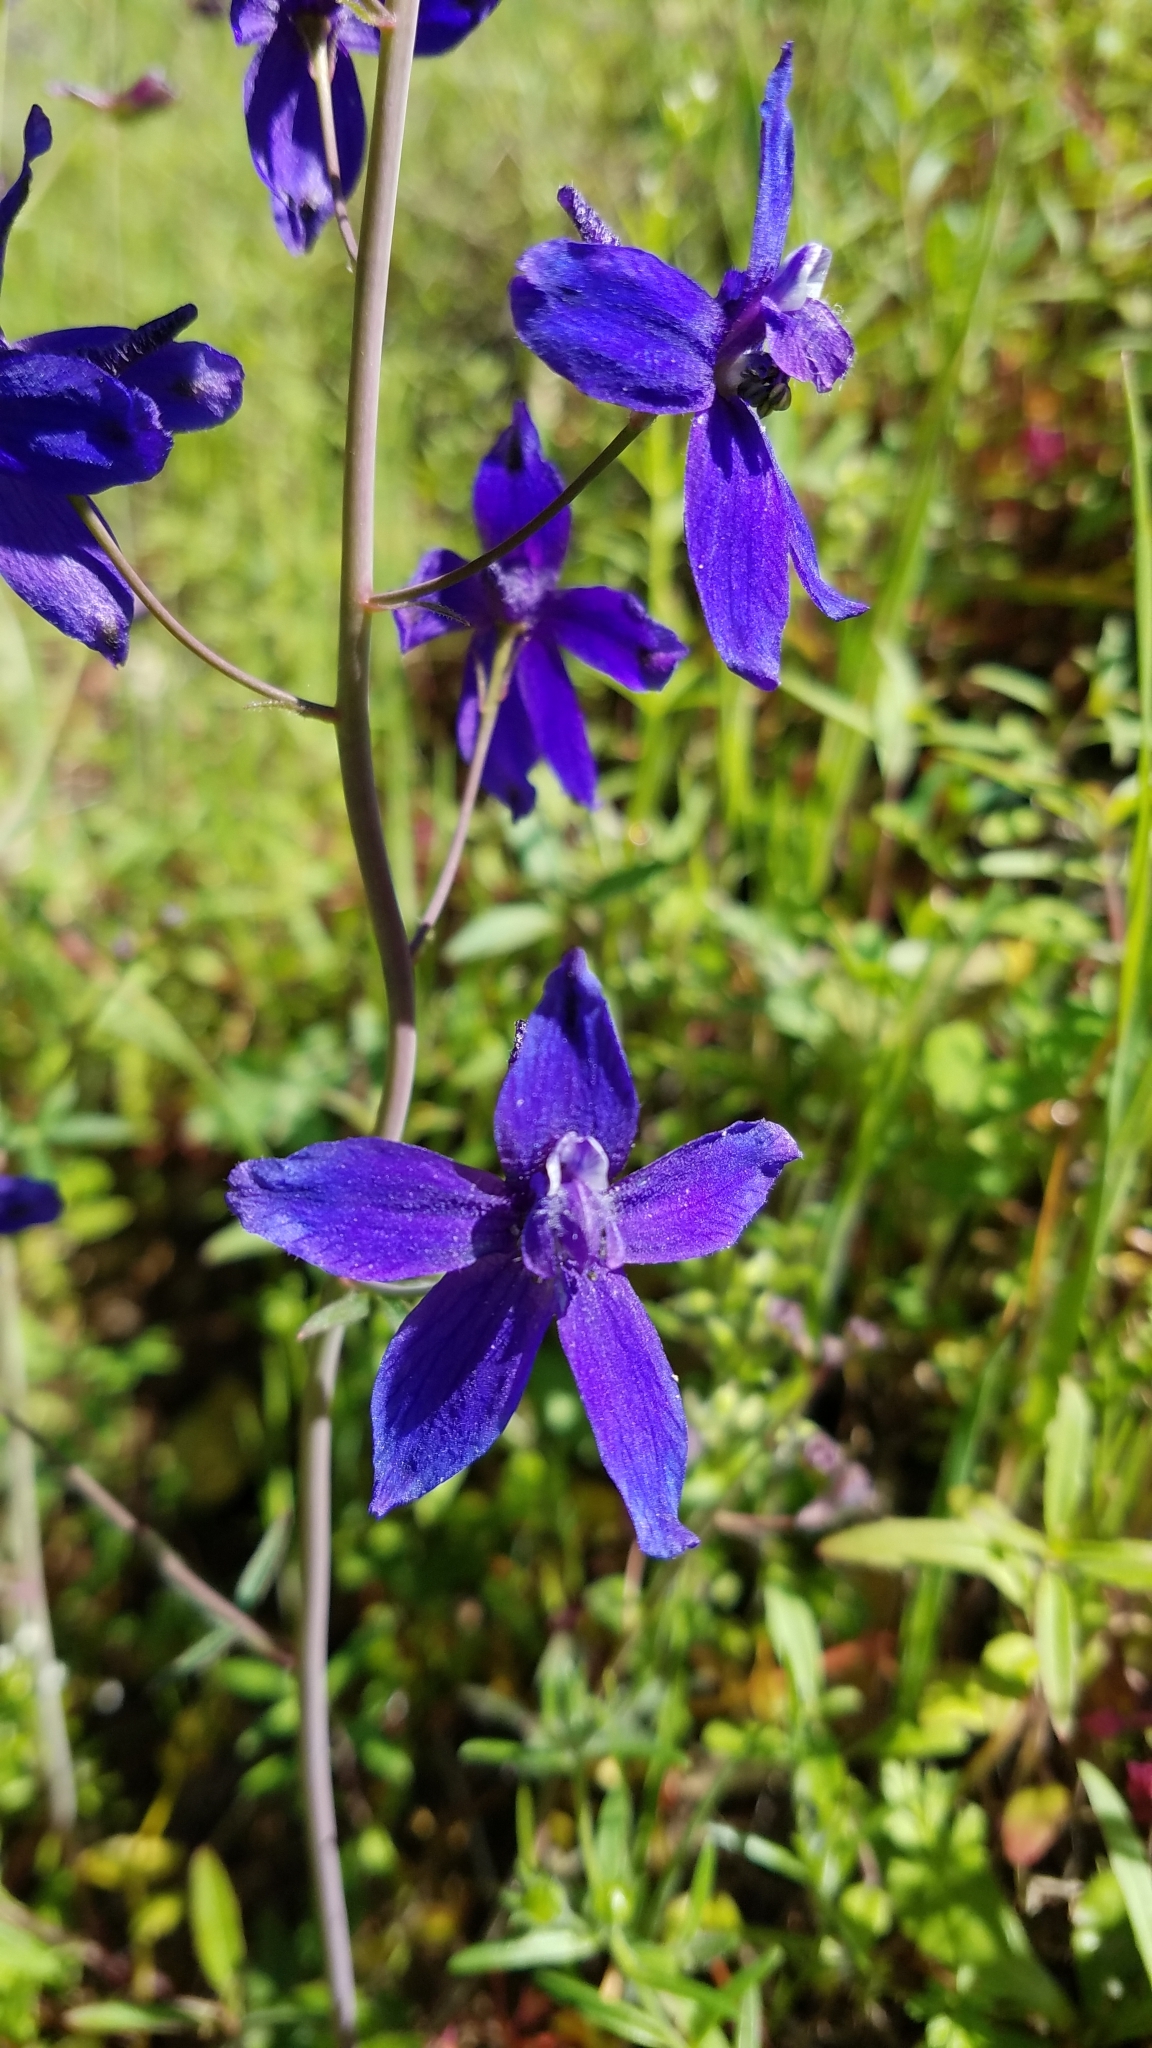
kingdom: Plantae
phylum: Tracheophyta
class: Magnoliopsida
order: Ranunculales
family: Ranunculaceae
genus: Delphinium
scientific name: Delphinium patens
